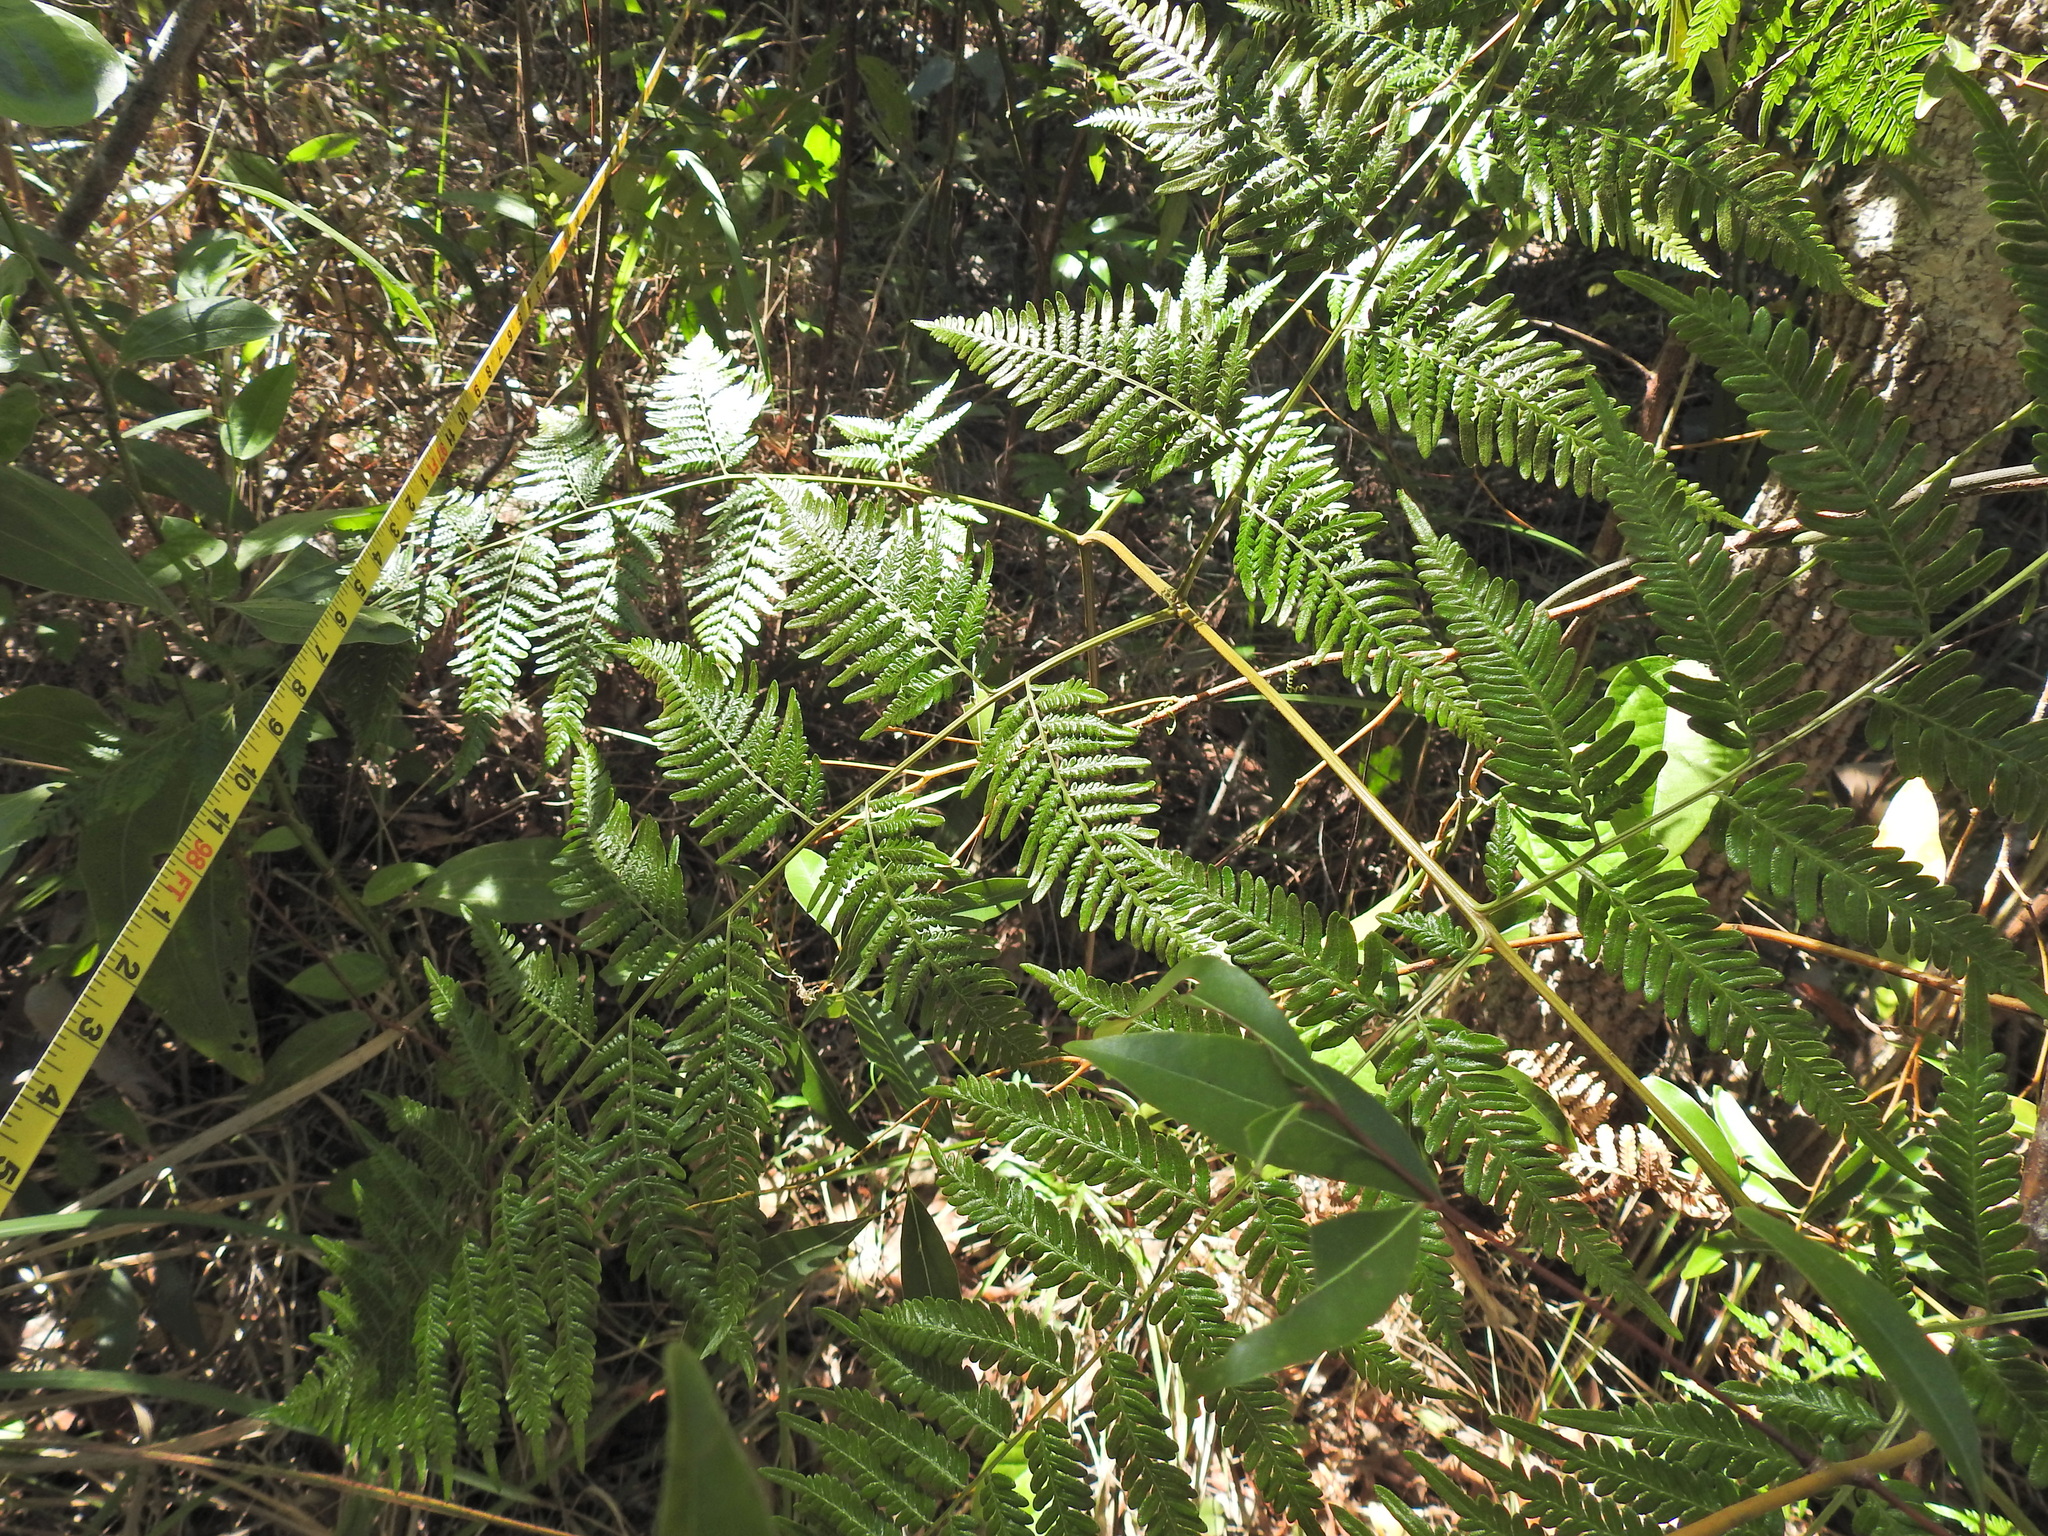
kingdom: Plantae
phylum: Tracheophyta
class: Polypodiopsida
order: Polypodiales
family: Dennstaedtiaceae
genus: Pteridium
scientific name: Pteridium esculentum
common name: Bracken fern
